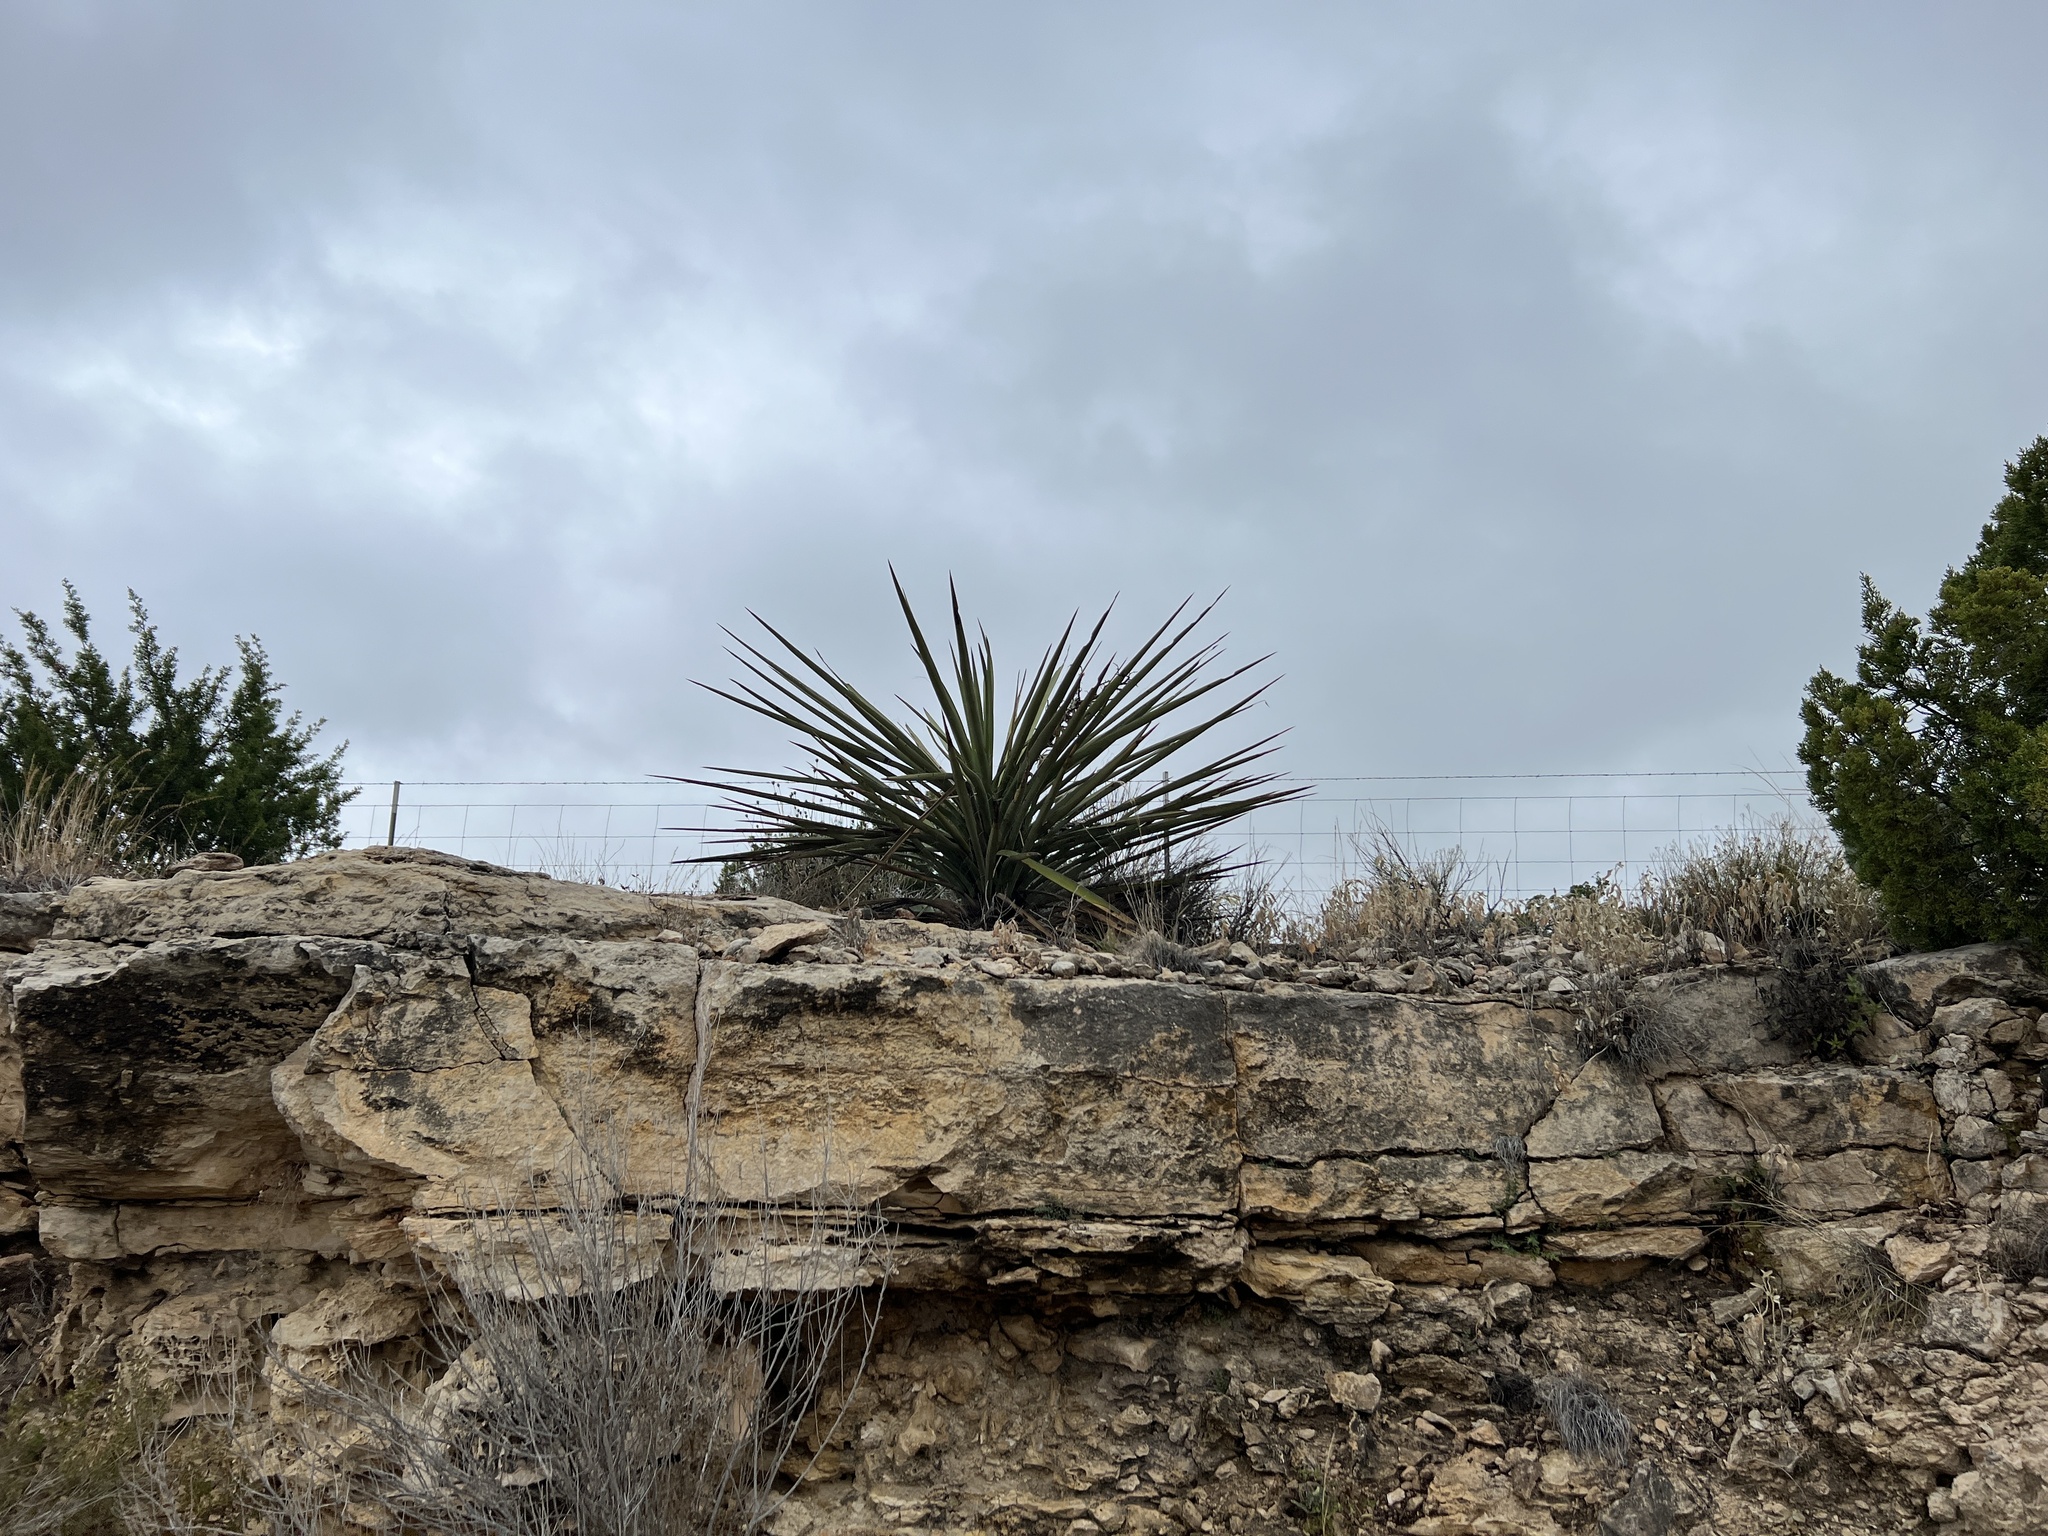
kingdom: Plantae
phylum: Tracheophyta
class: Liliopsida
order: Asparagales
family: Asparagaceae
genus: Yucca
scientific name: Yucca treculiana
